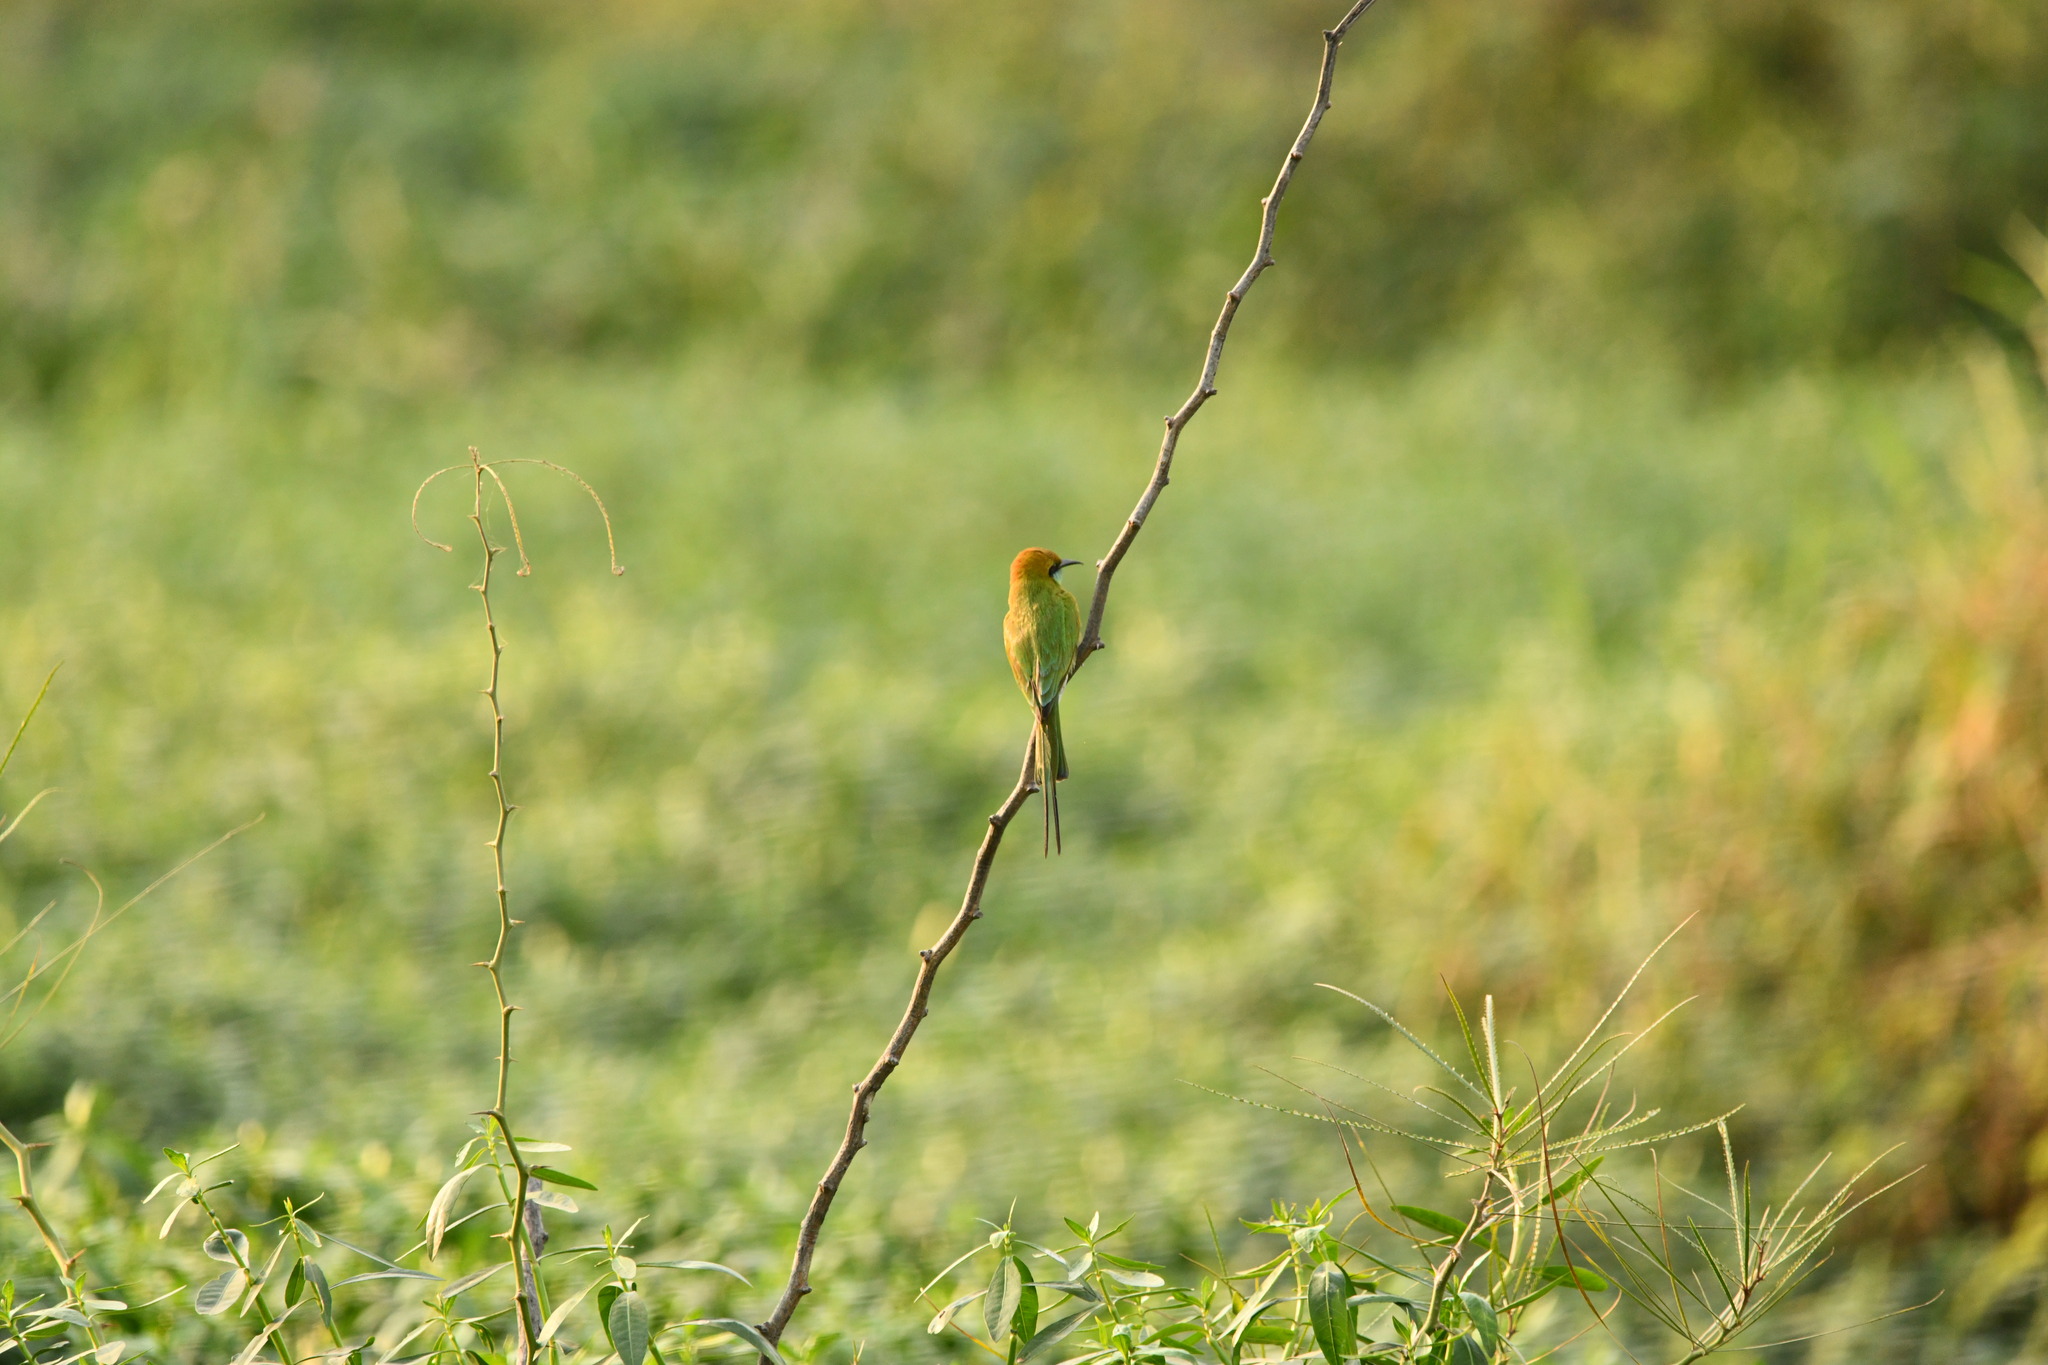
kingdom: Animalia
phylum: Chordata
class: Aves
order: Coraciiformes
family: Meropidae
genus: Merops
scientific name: Merops orientalis
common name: Green bee-eater
